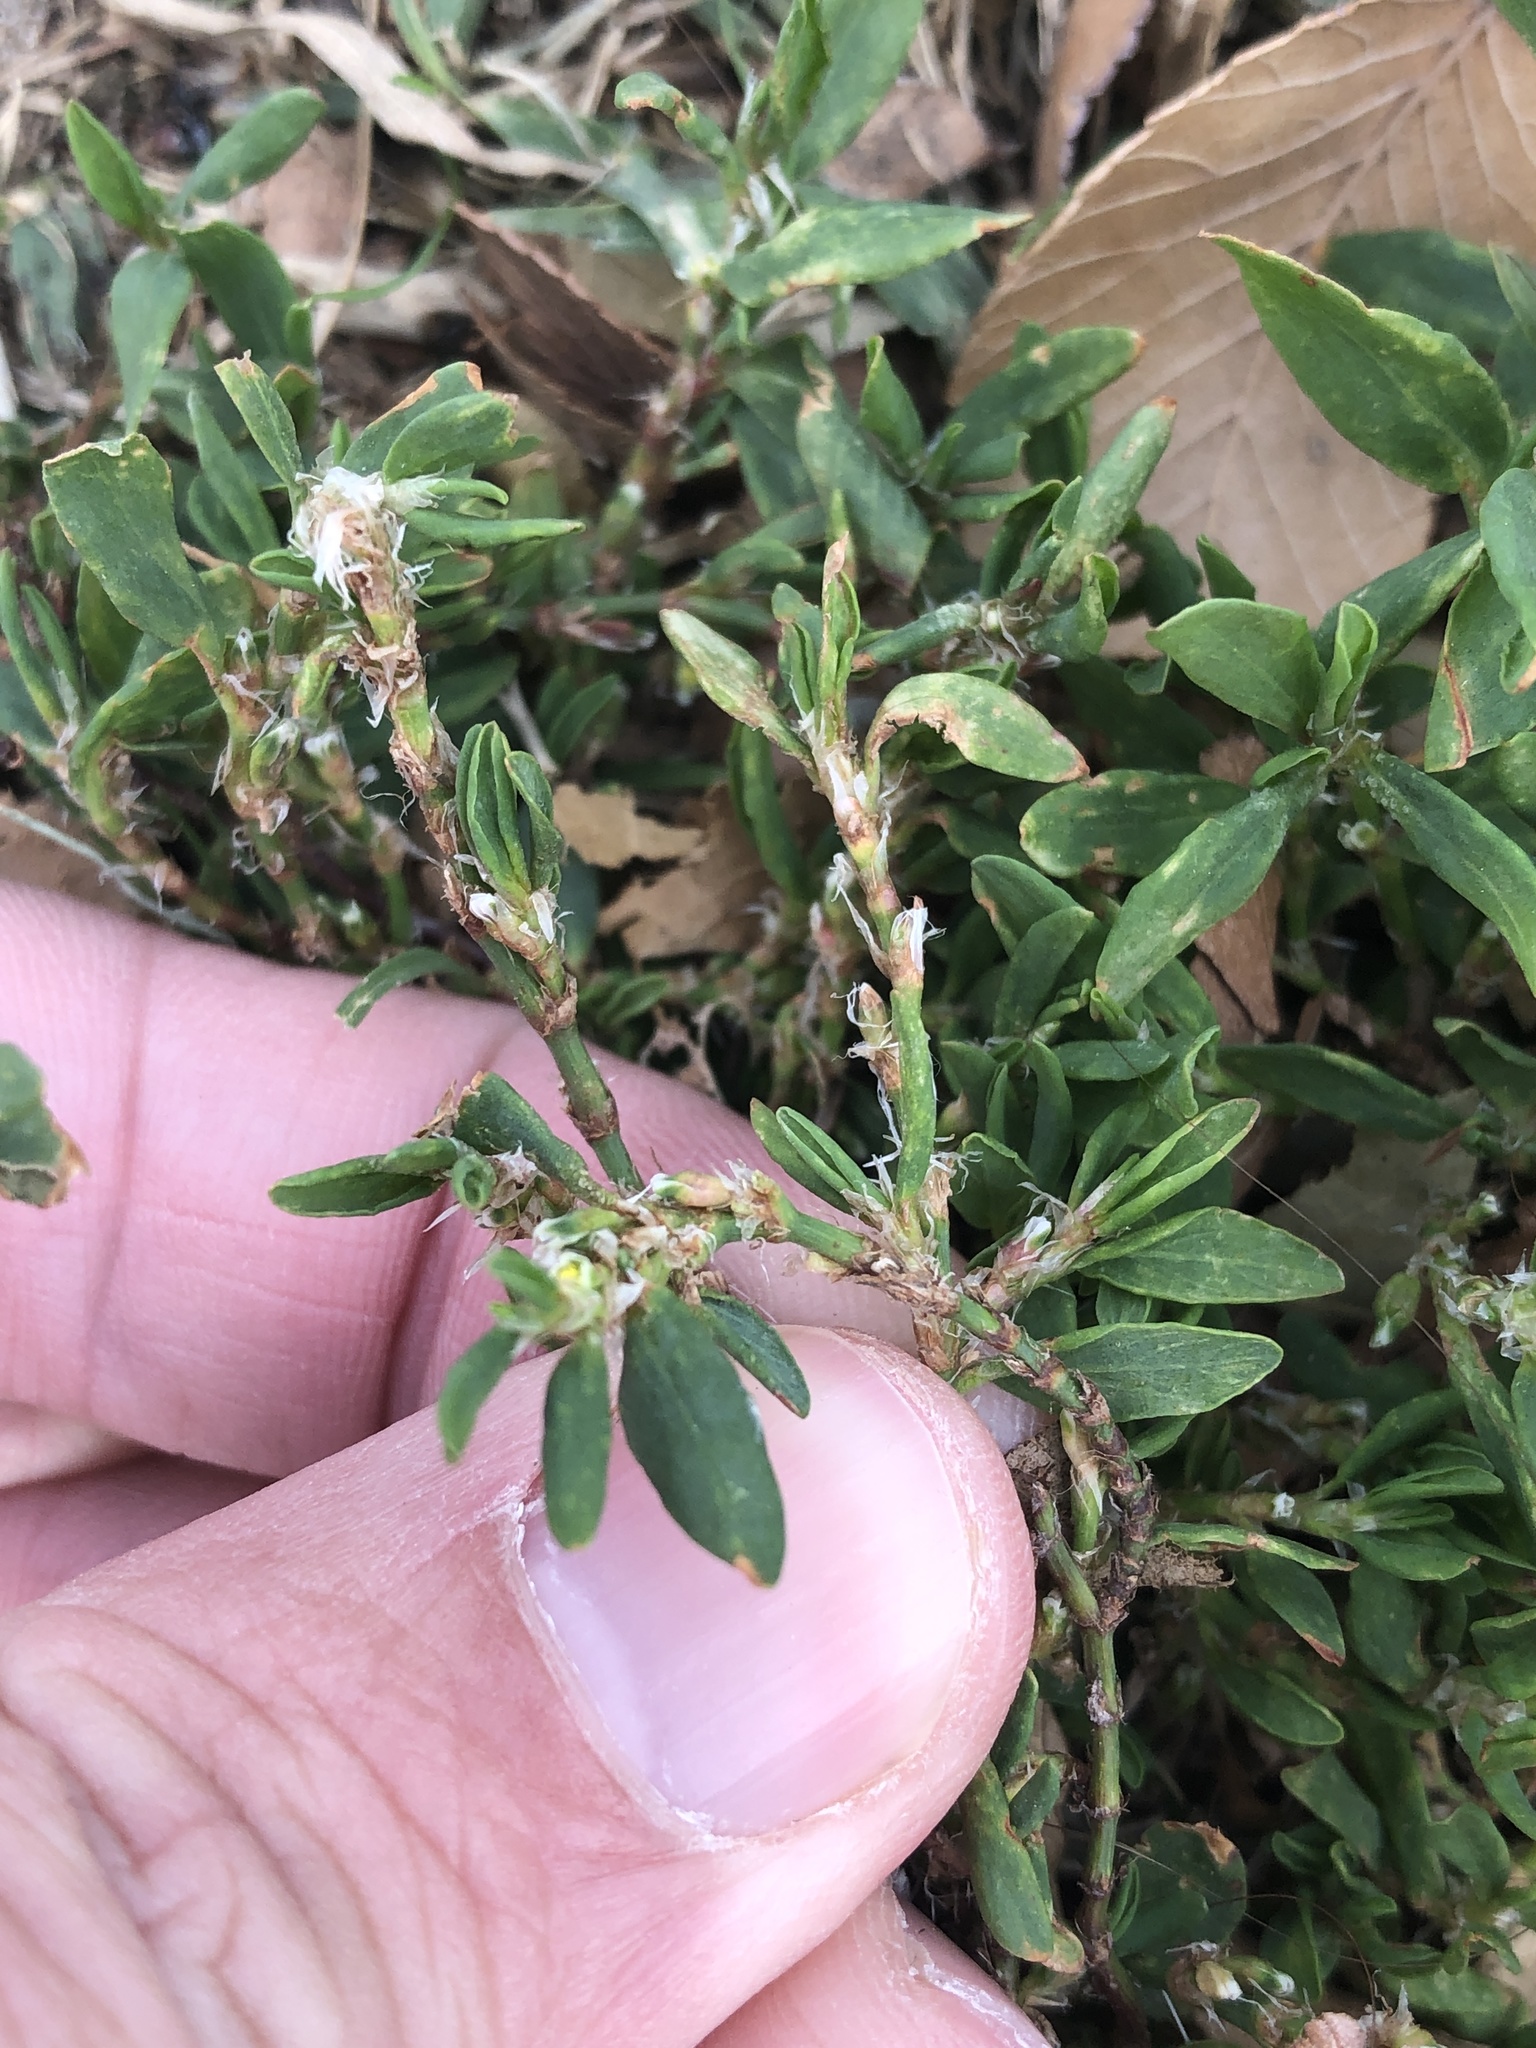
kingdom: Plantae
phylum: Tracheophyta
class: Magnoliopsida
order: Caryophyllales
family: Polygonaceae
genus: Polygonum
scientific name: Polygonum aviculare
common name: Prostrate knotweed
